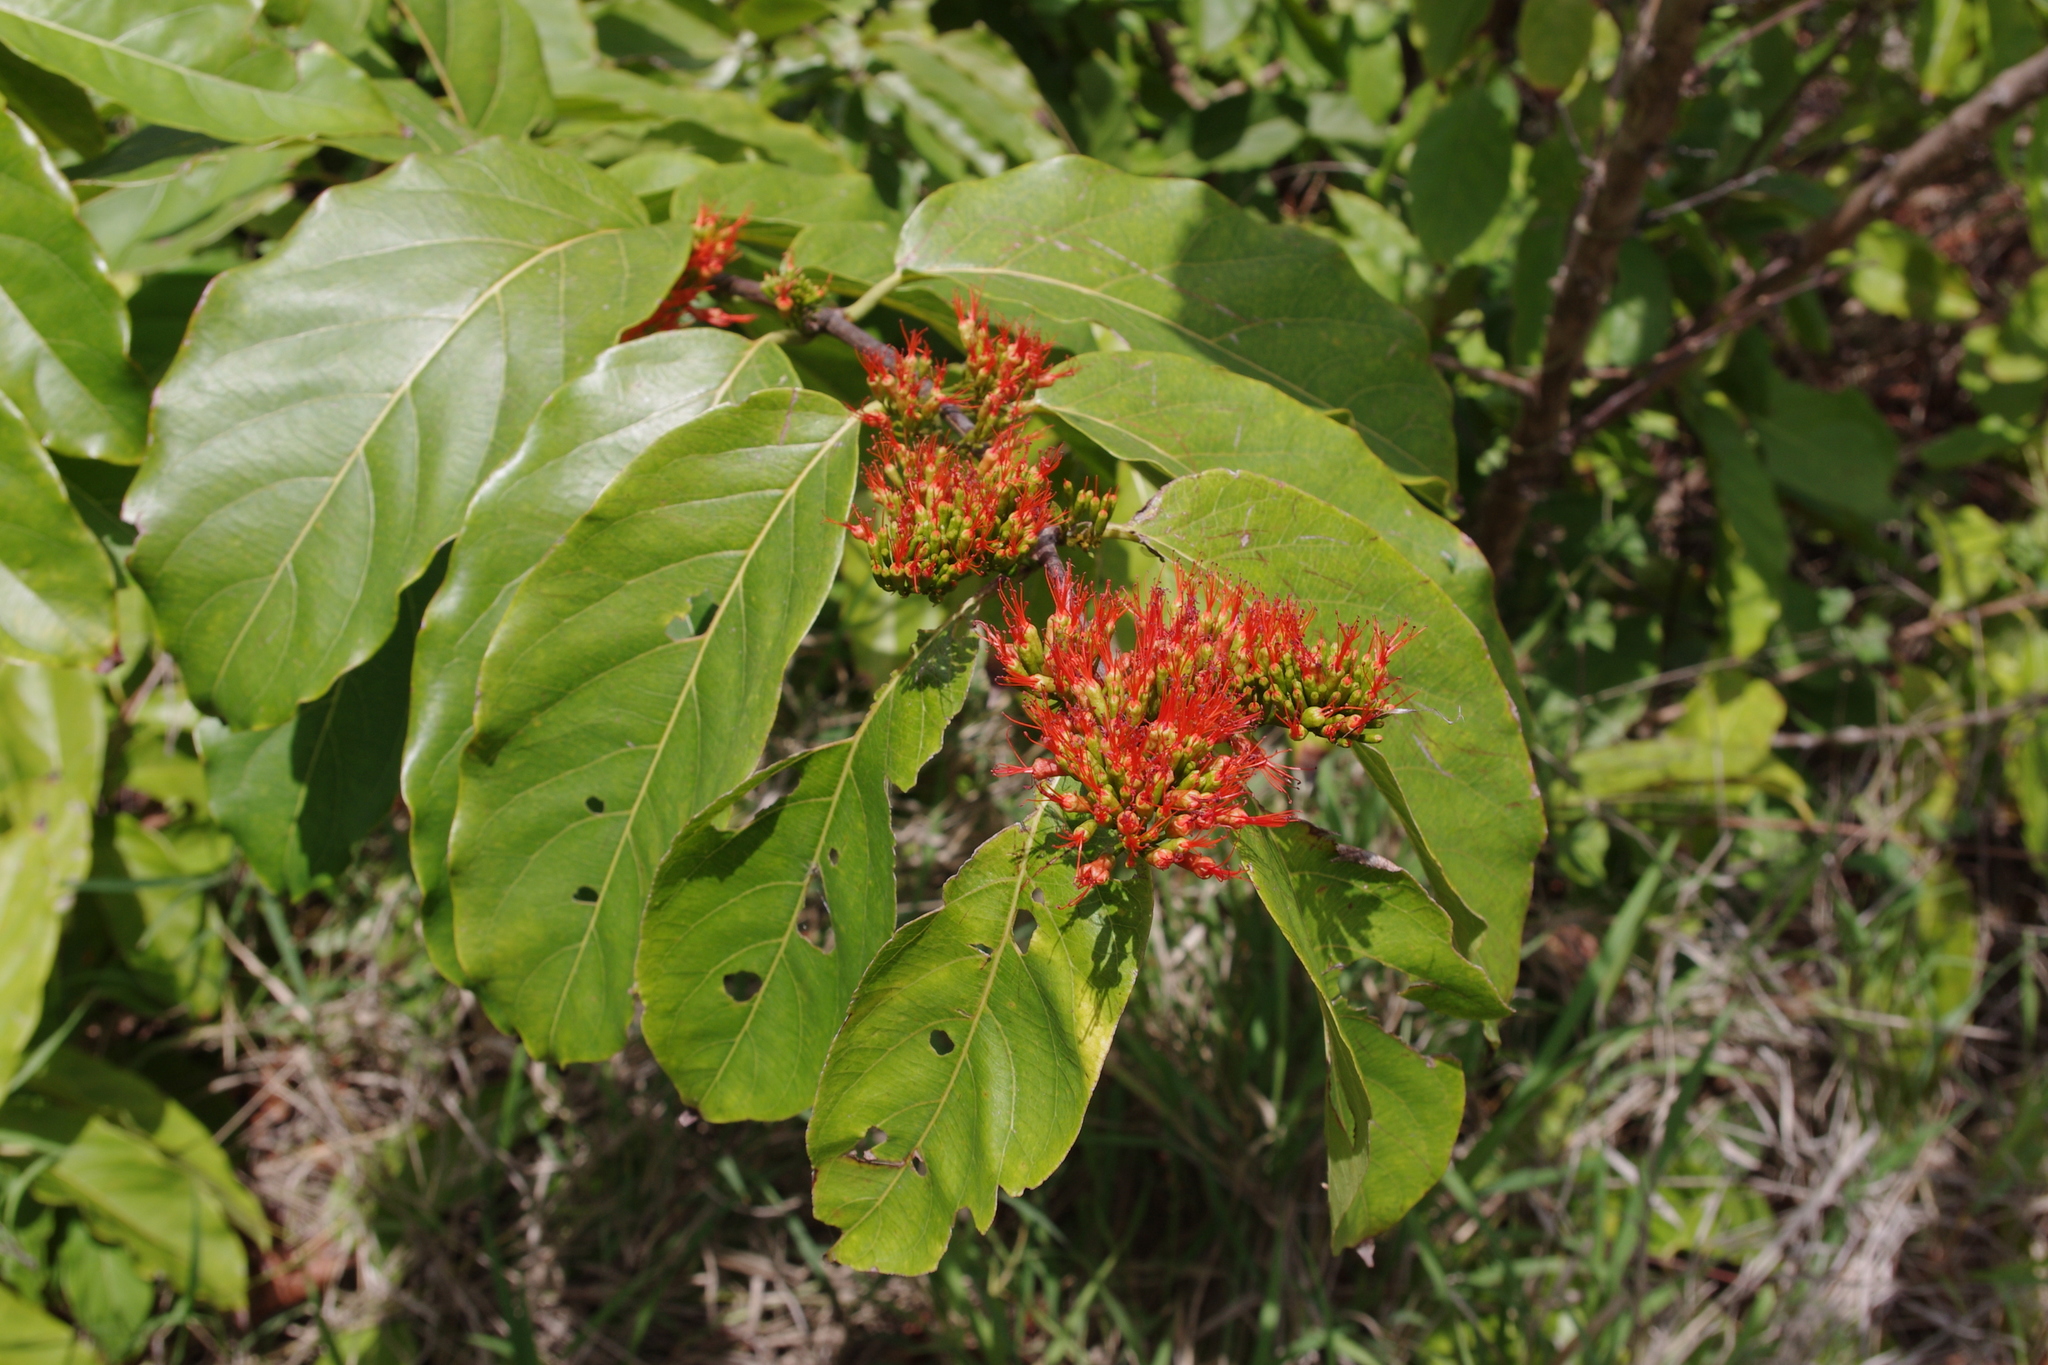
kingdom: Plantae
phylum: Tracheophyta
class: Magnoliopsida
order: Myrtales
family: Combretaceae
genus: Combretum
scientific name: Combretum paniculatum
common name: Fire vine
